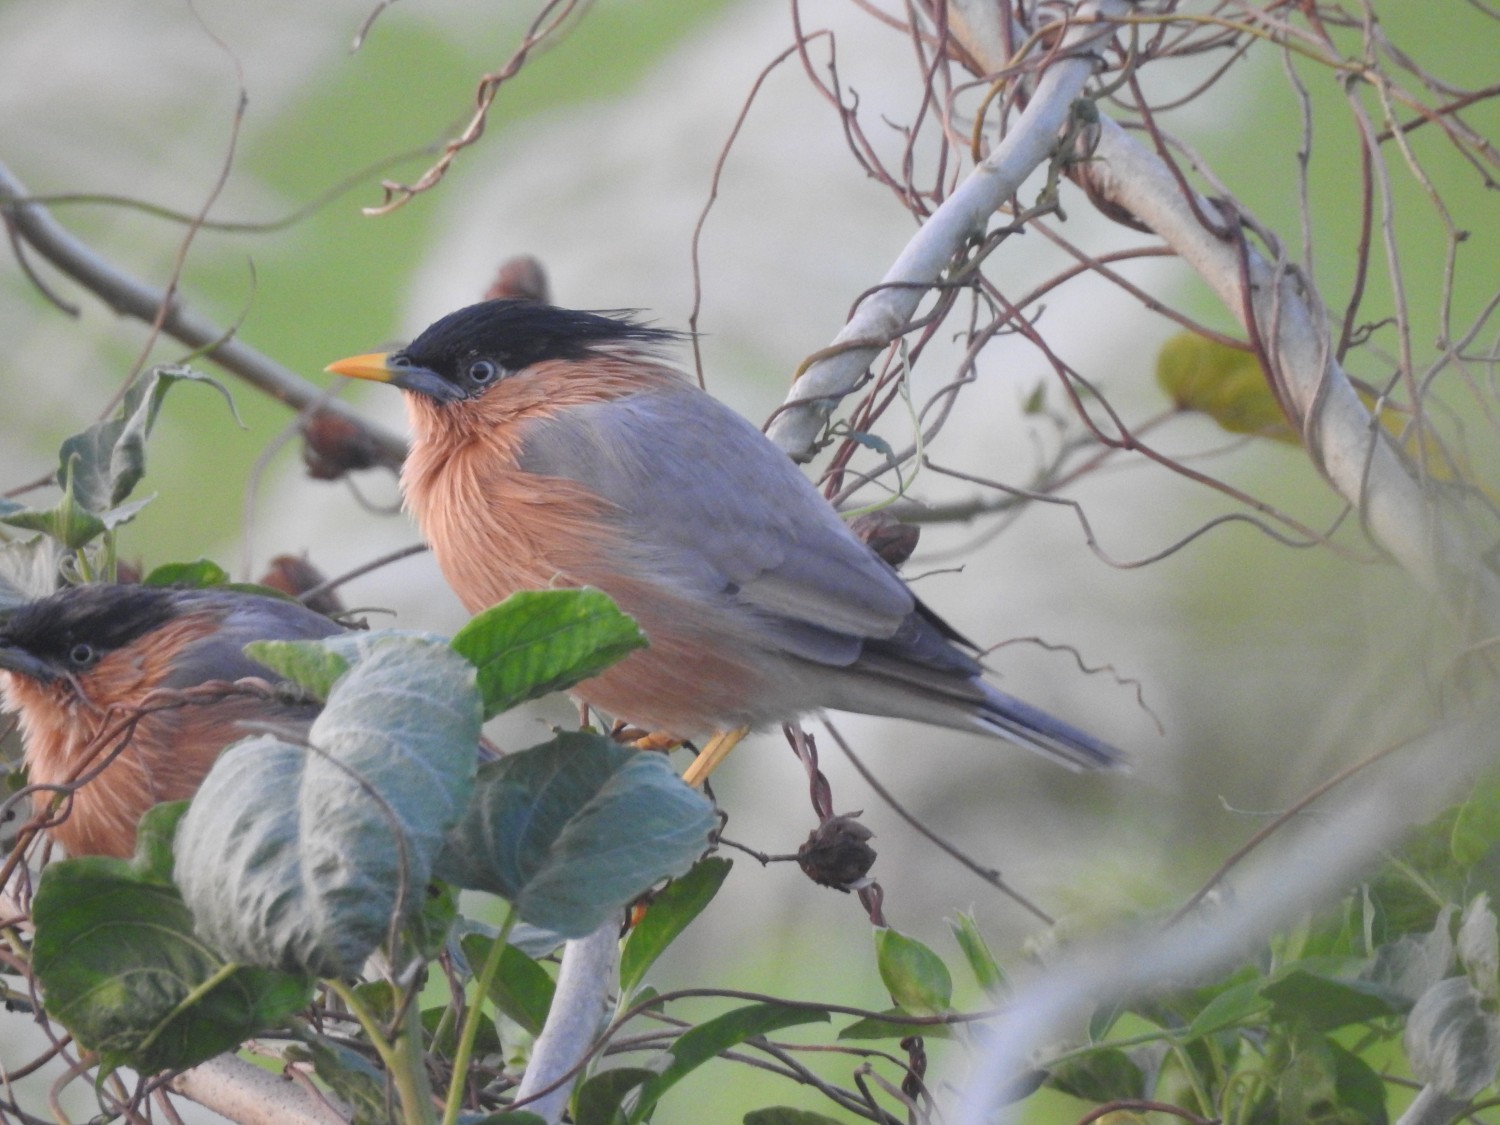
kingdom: Animalia
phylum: Chordata
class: Aves
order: Passeriformes
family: Sturnidae
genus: Sturnia
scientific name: Sturnia pagodarum
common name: Brahminy starling
